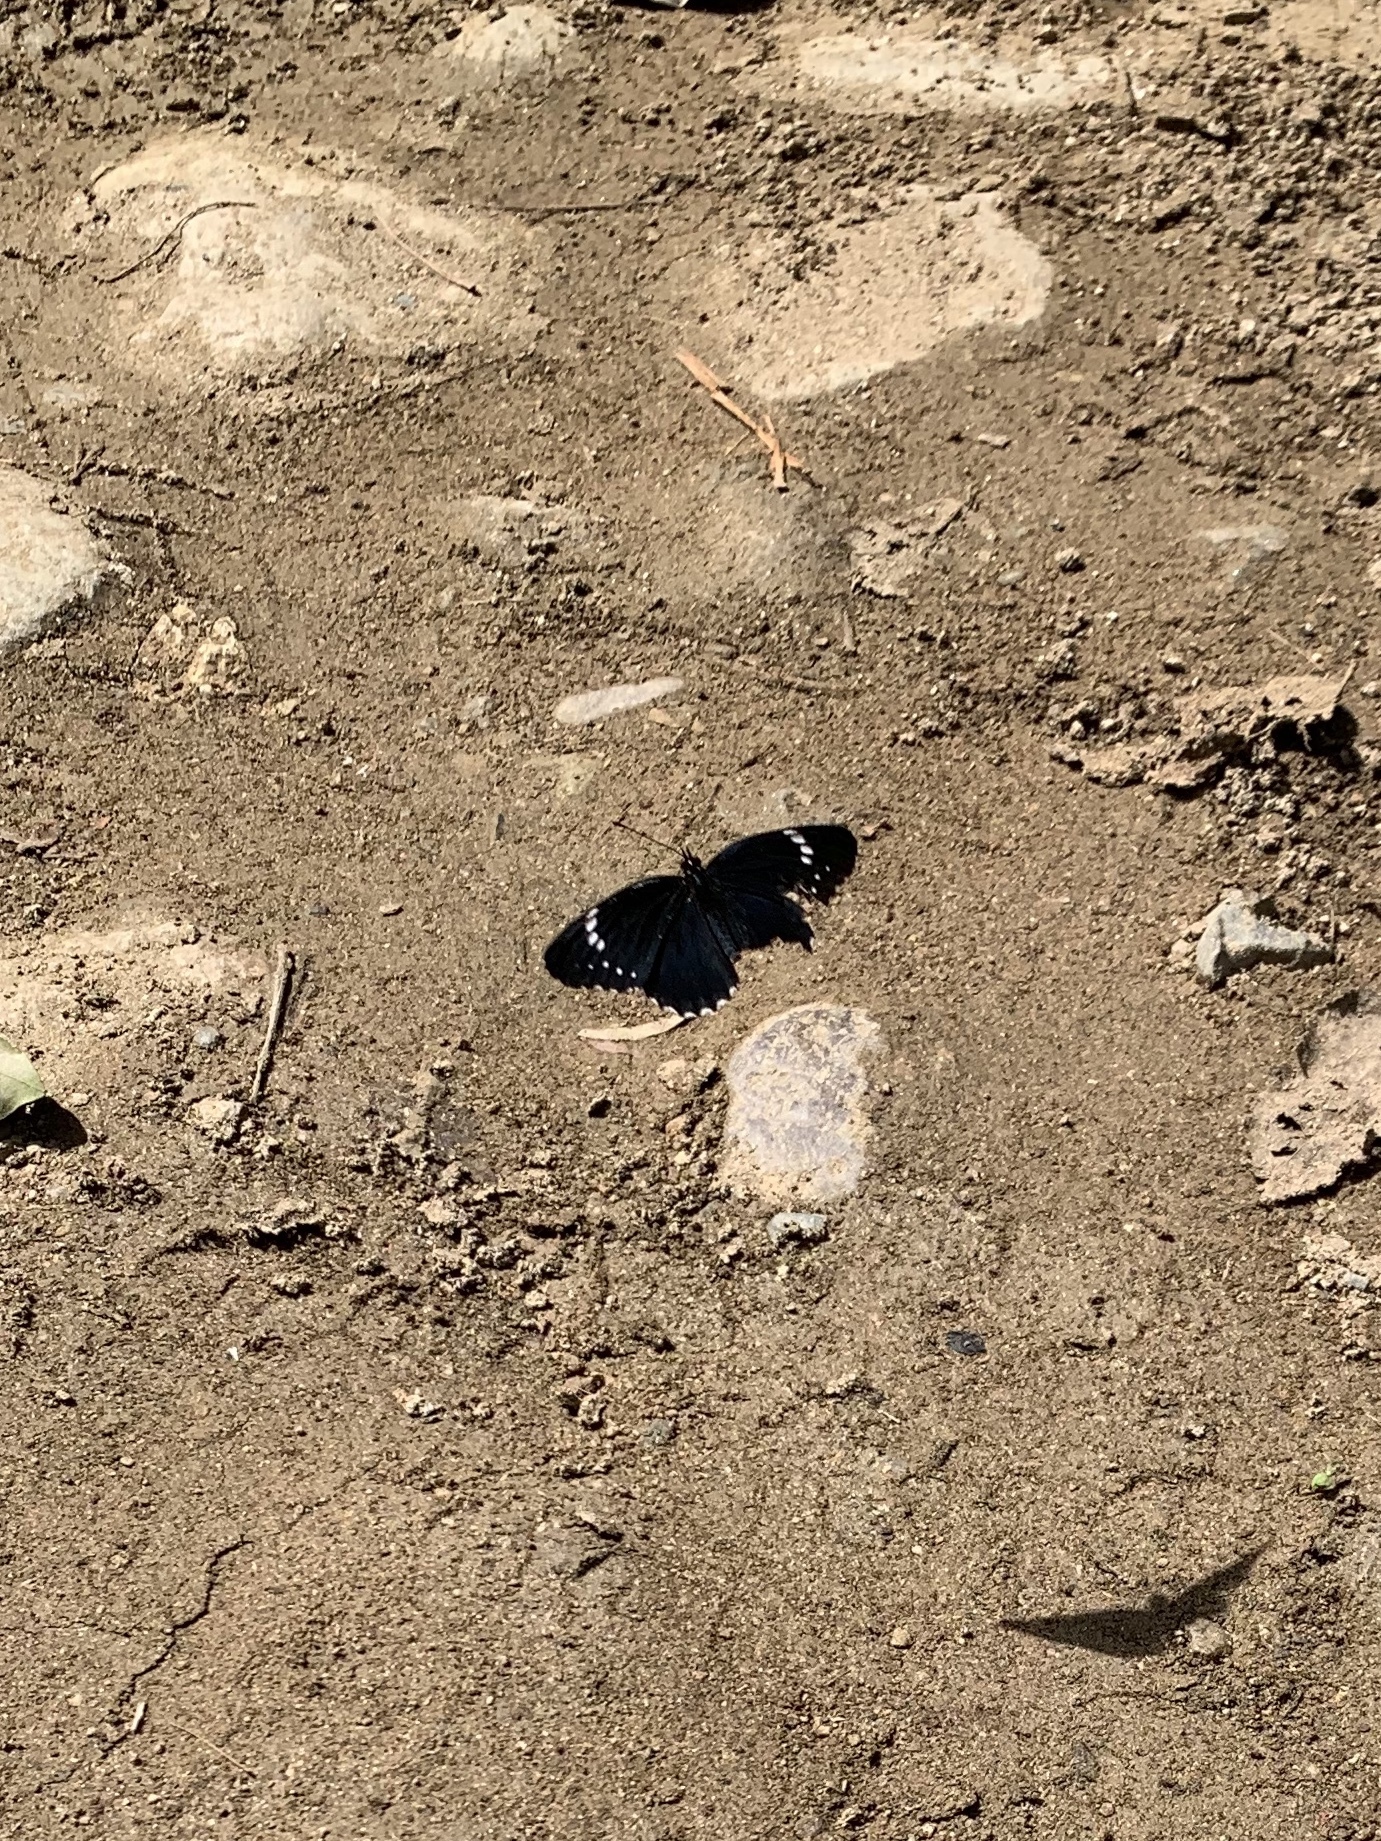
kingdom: Animalia
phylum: Arthropoda
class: Insecta
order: Lepidoptera
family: Nymphalidae
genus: Chlosyne
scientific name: Chlosyne hippodrome
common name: Simple patch
